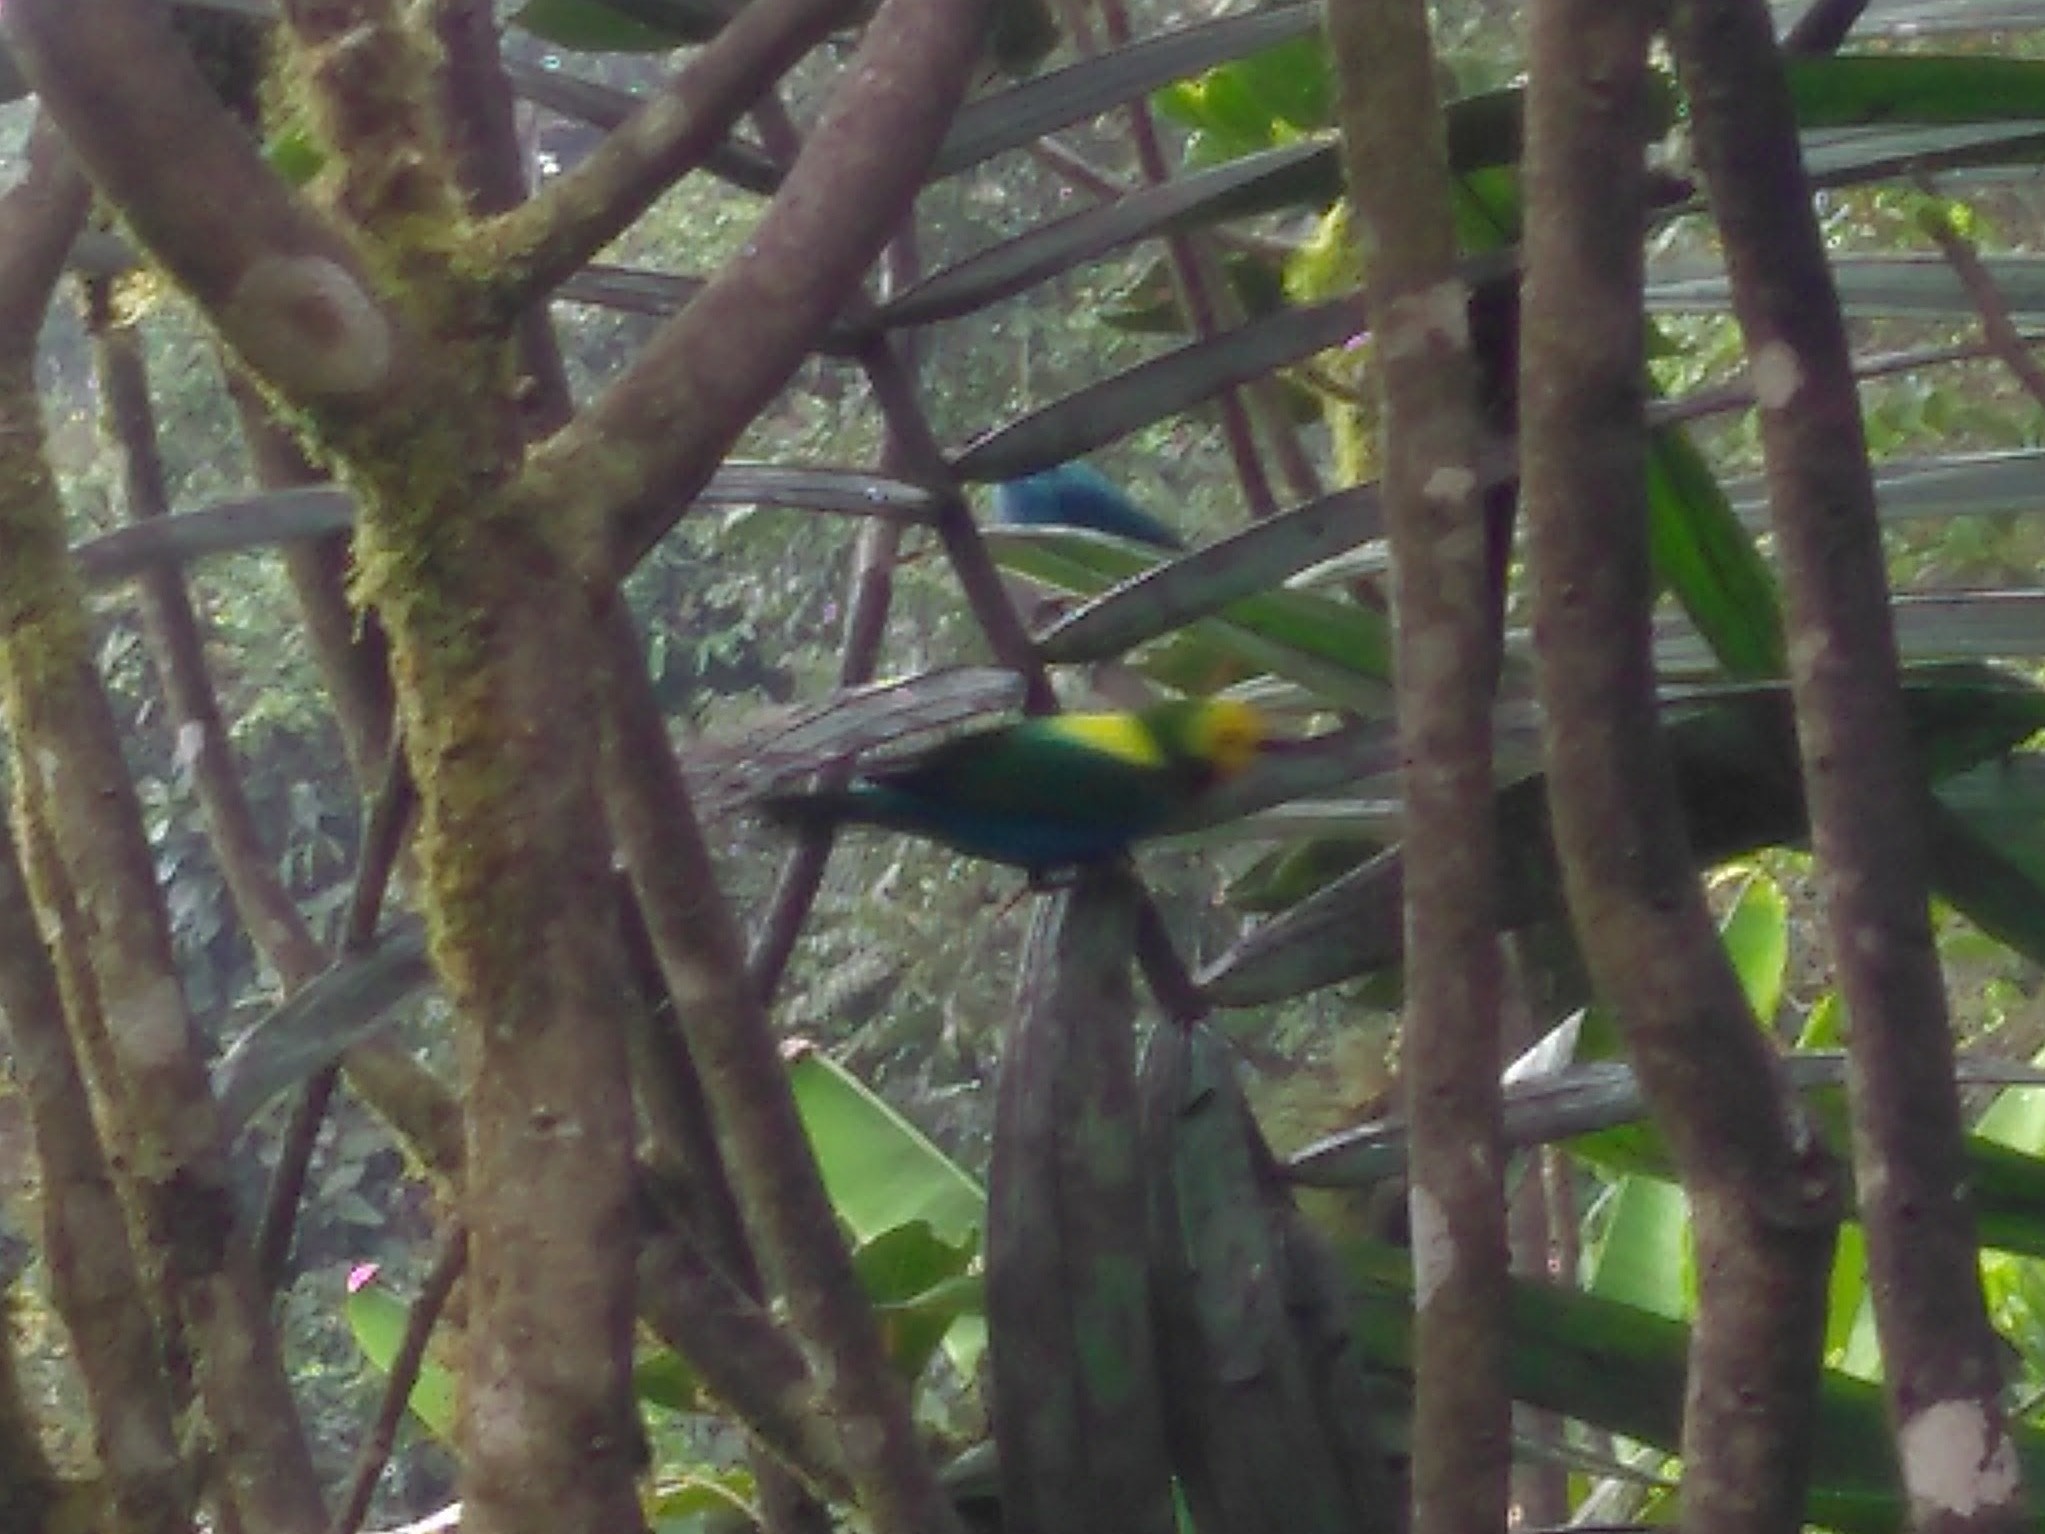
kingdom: Animalia
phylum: Chordata
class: Aves
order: Passeriformes
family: Thraupidae
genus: Chlorochrysa
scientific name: Chlorochrysa nitidissima
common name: Multicolored tanager
